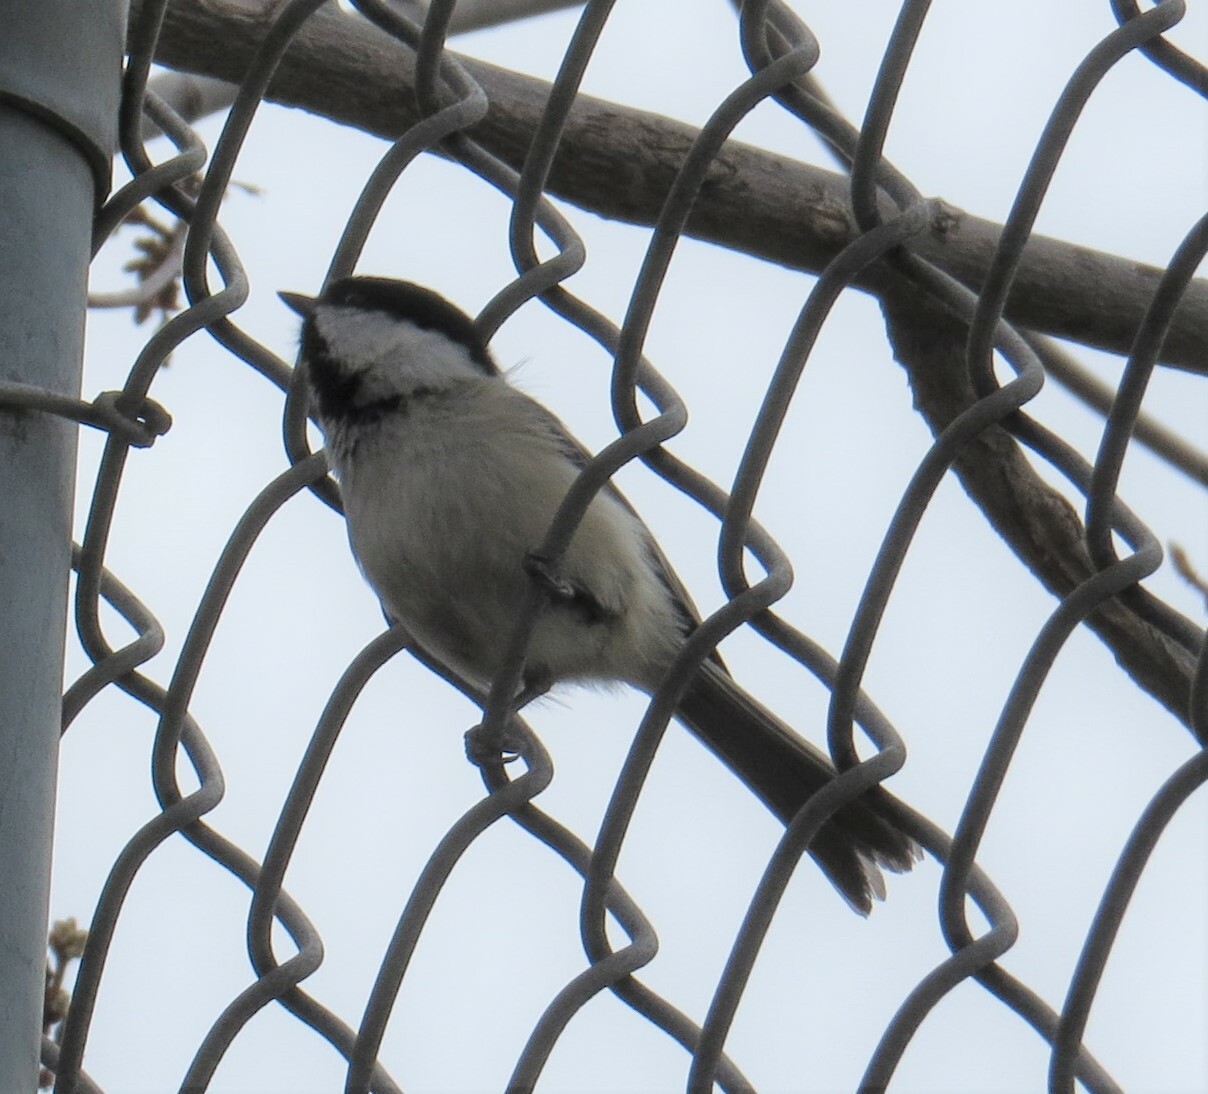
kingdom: Animalia
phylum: Chordata
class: Aves
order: Passeriformes
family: Paridae
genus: Poecile
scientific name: Poecile atricapillus
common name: Black-capped chickadee
